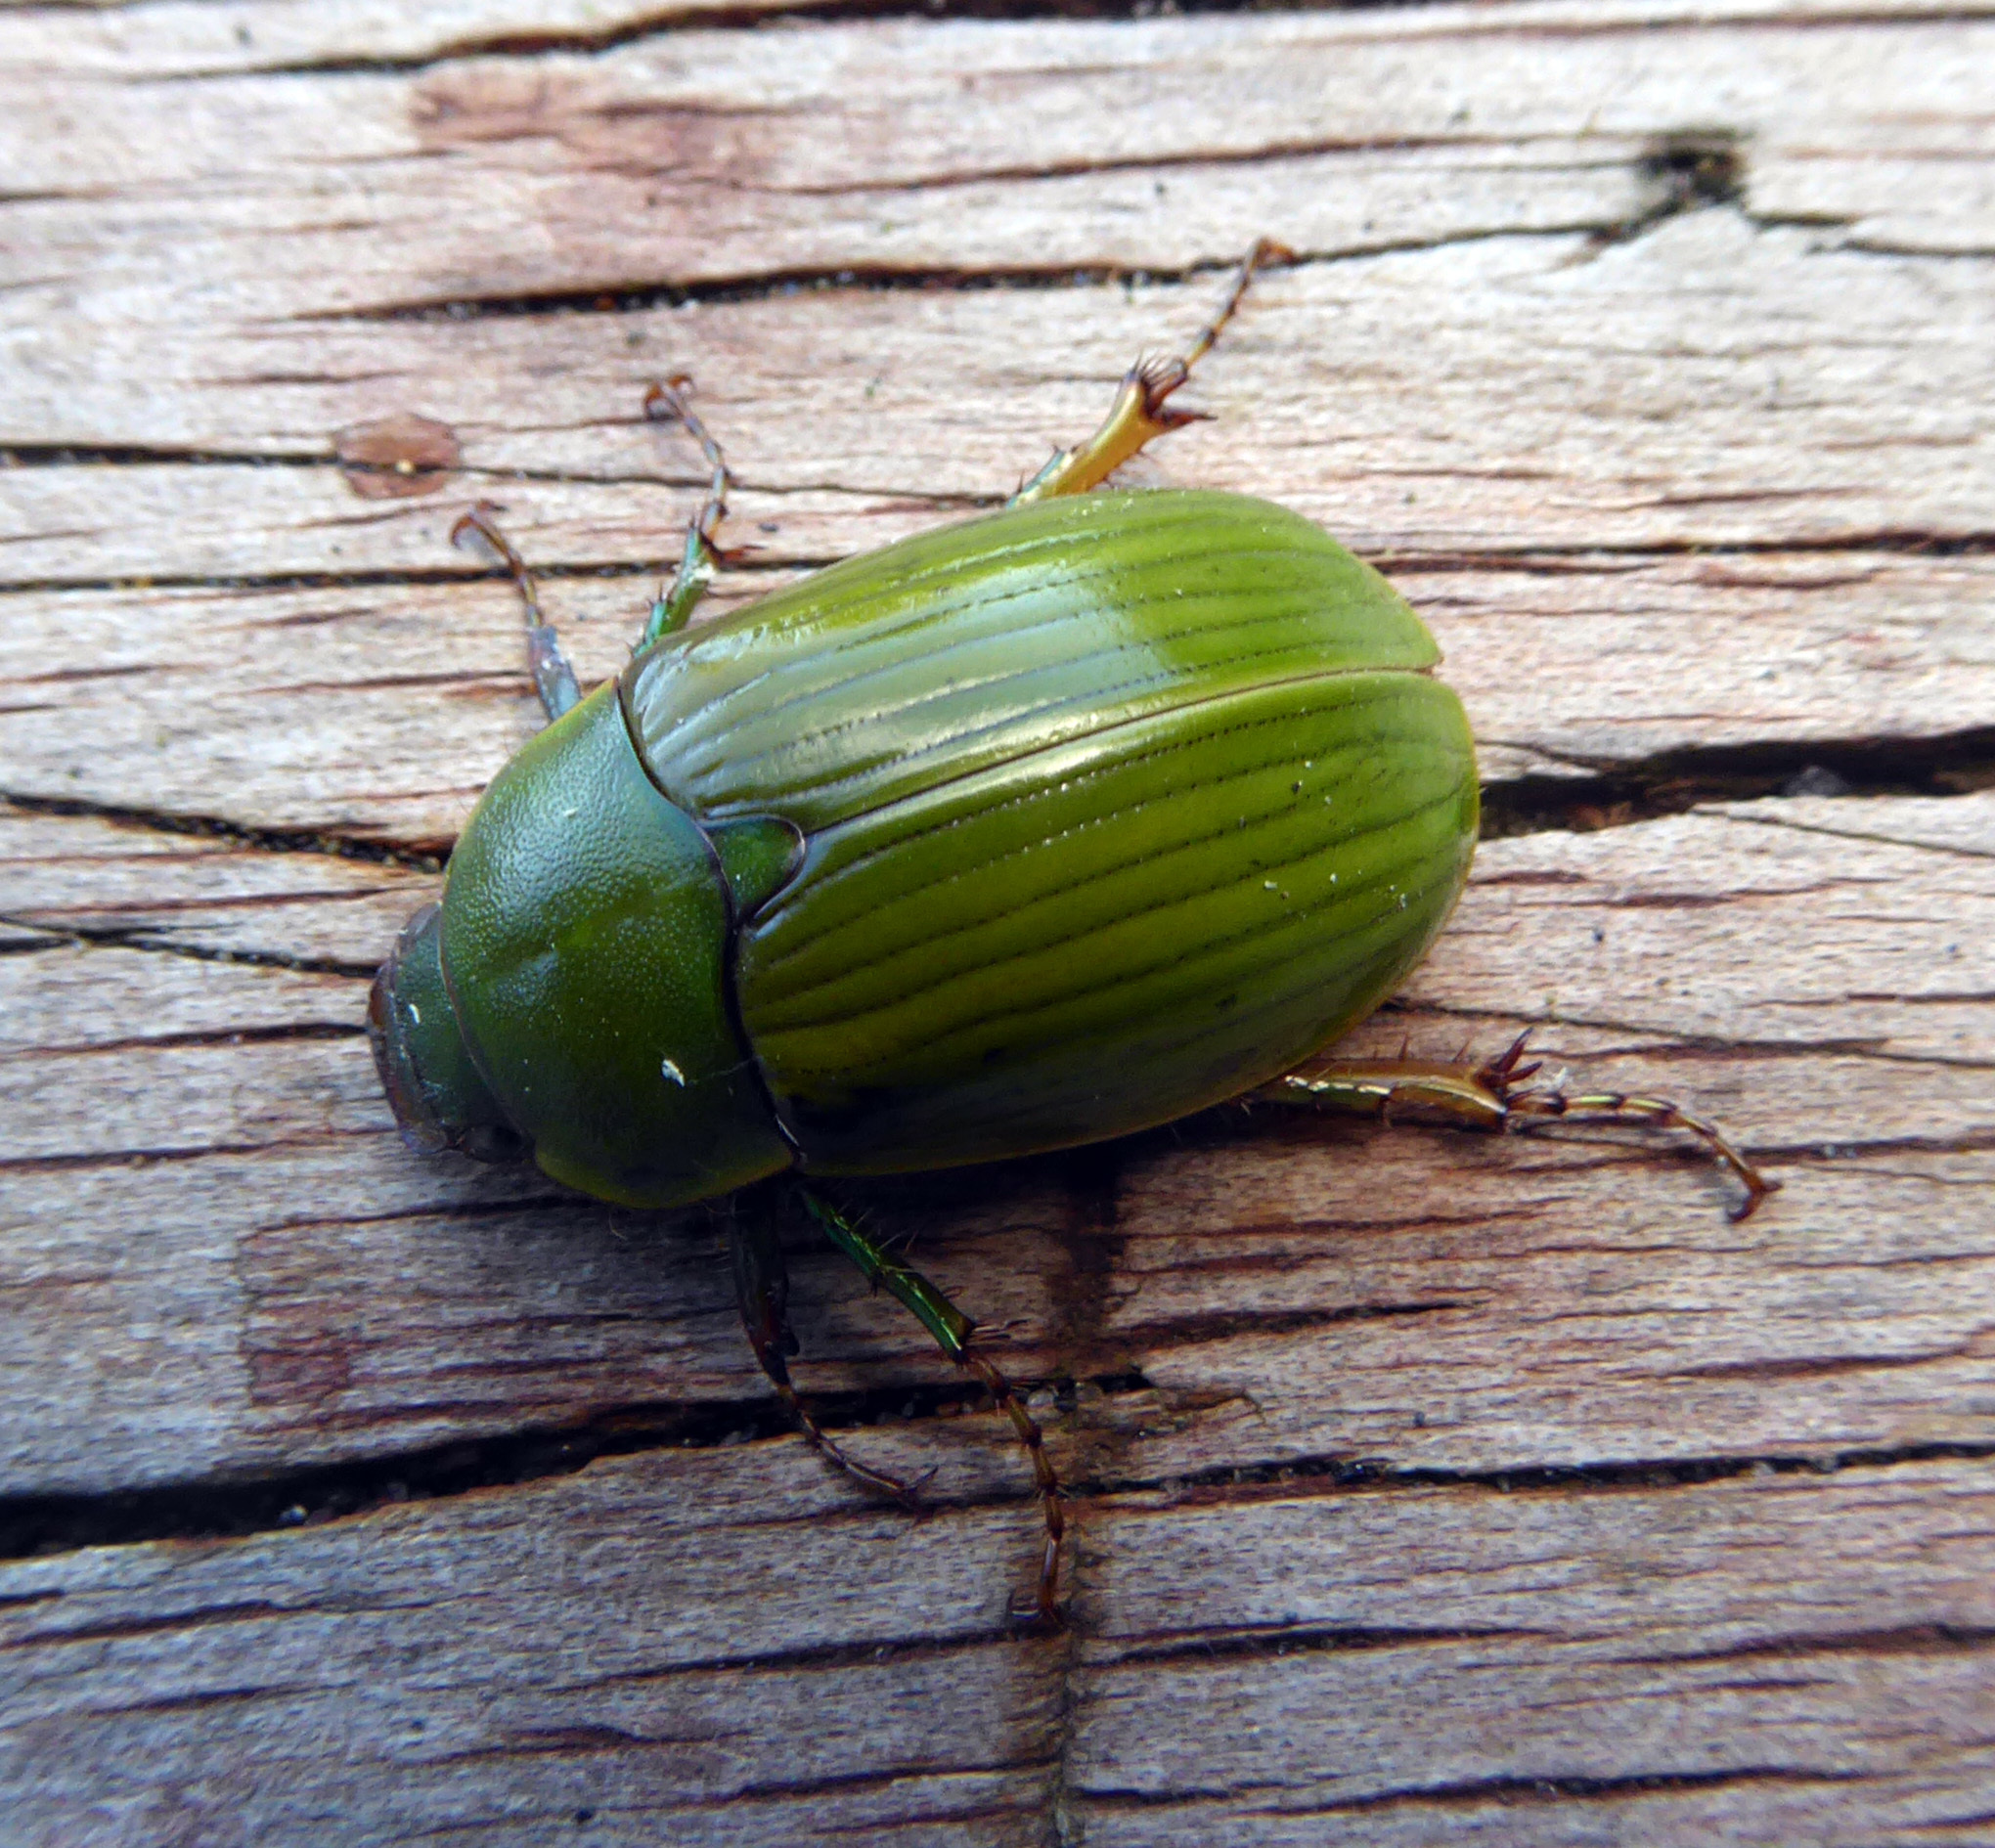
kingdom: Animalia
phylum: Arthropoda
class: Insecta
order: Coleoptera
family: Scarabaeidae
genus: Stethaspis
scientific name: Stethaspis longicornis
